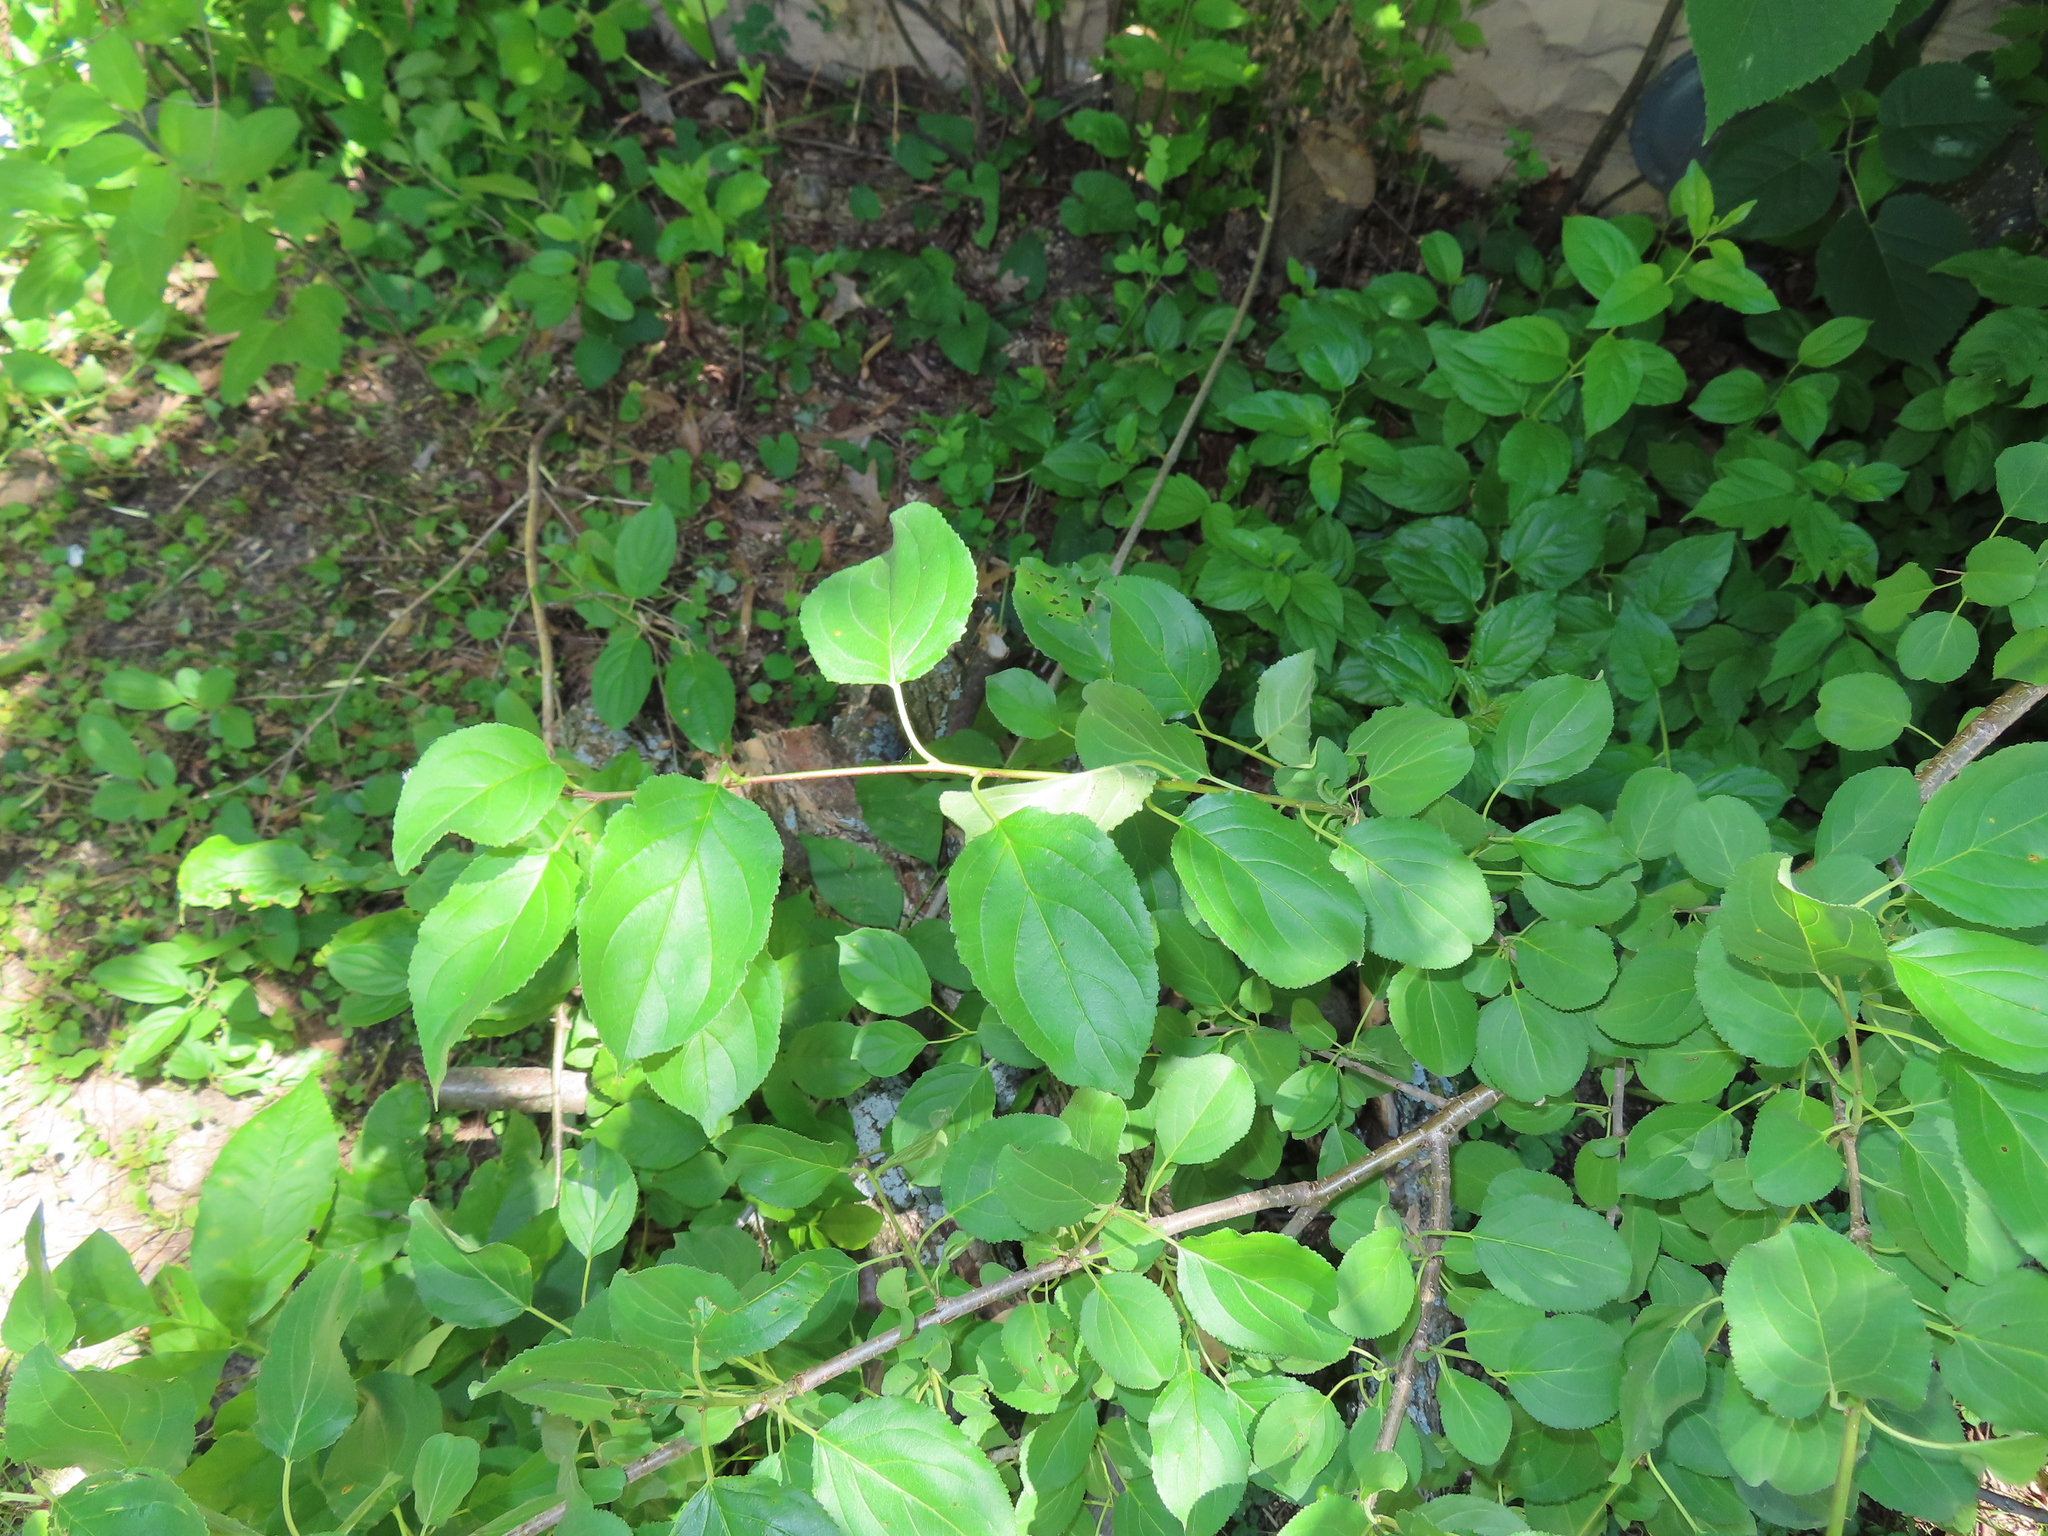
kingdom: Plantae
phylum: Tracheophyta
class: Magnoliopsida
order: Rosales
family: Rhamnaceae
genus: Rhamnus
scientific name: Rhamnus cathartica
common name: Common buckthorn
